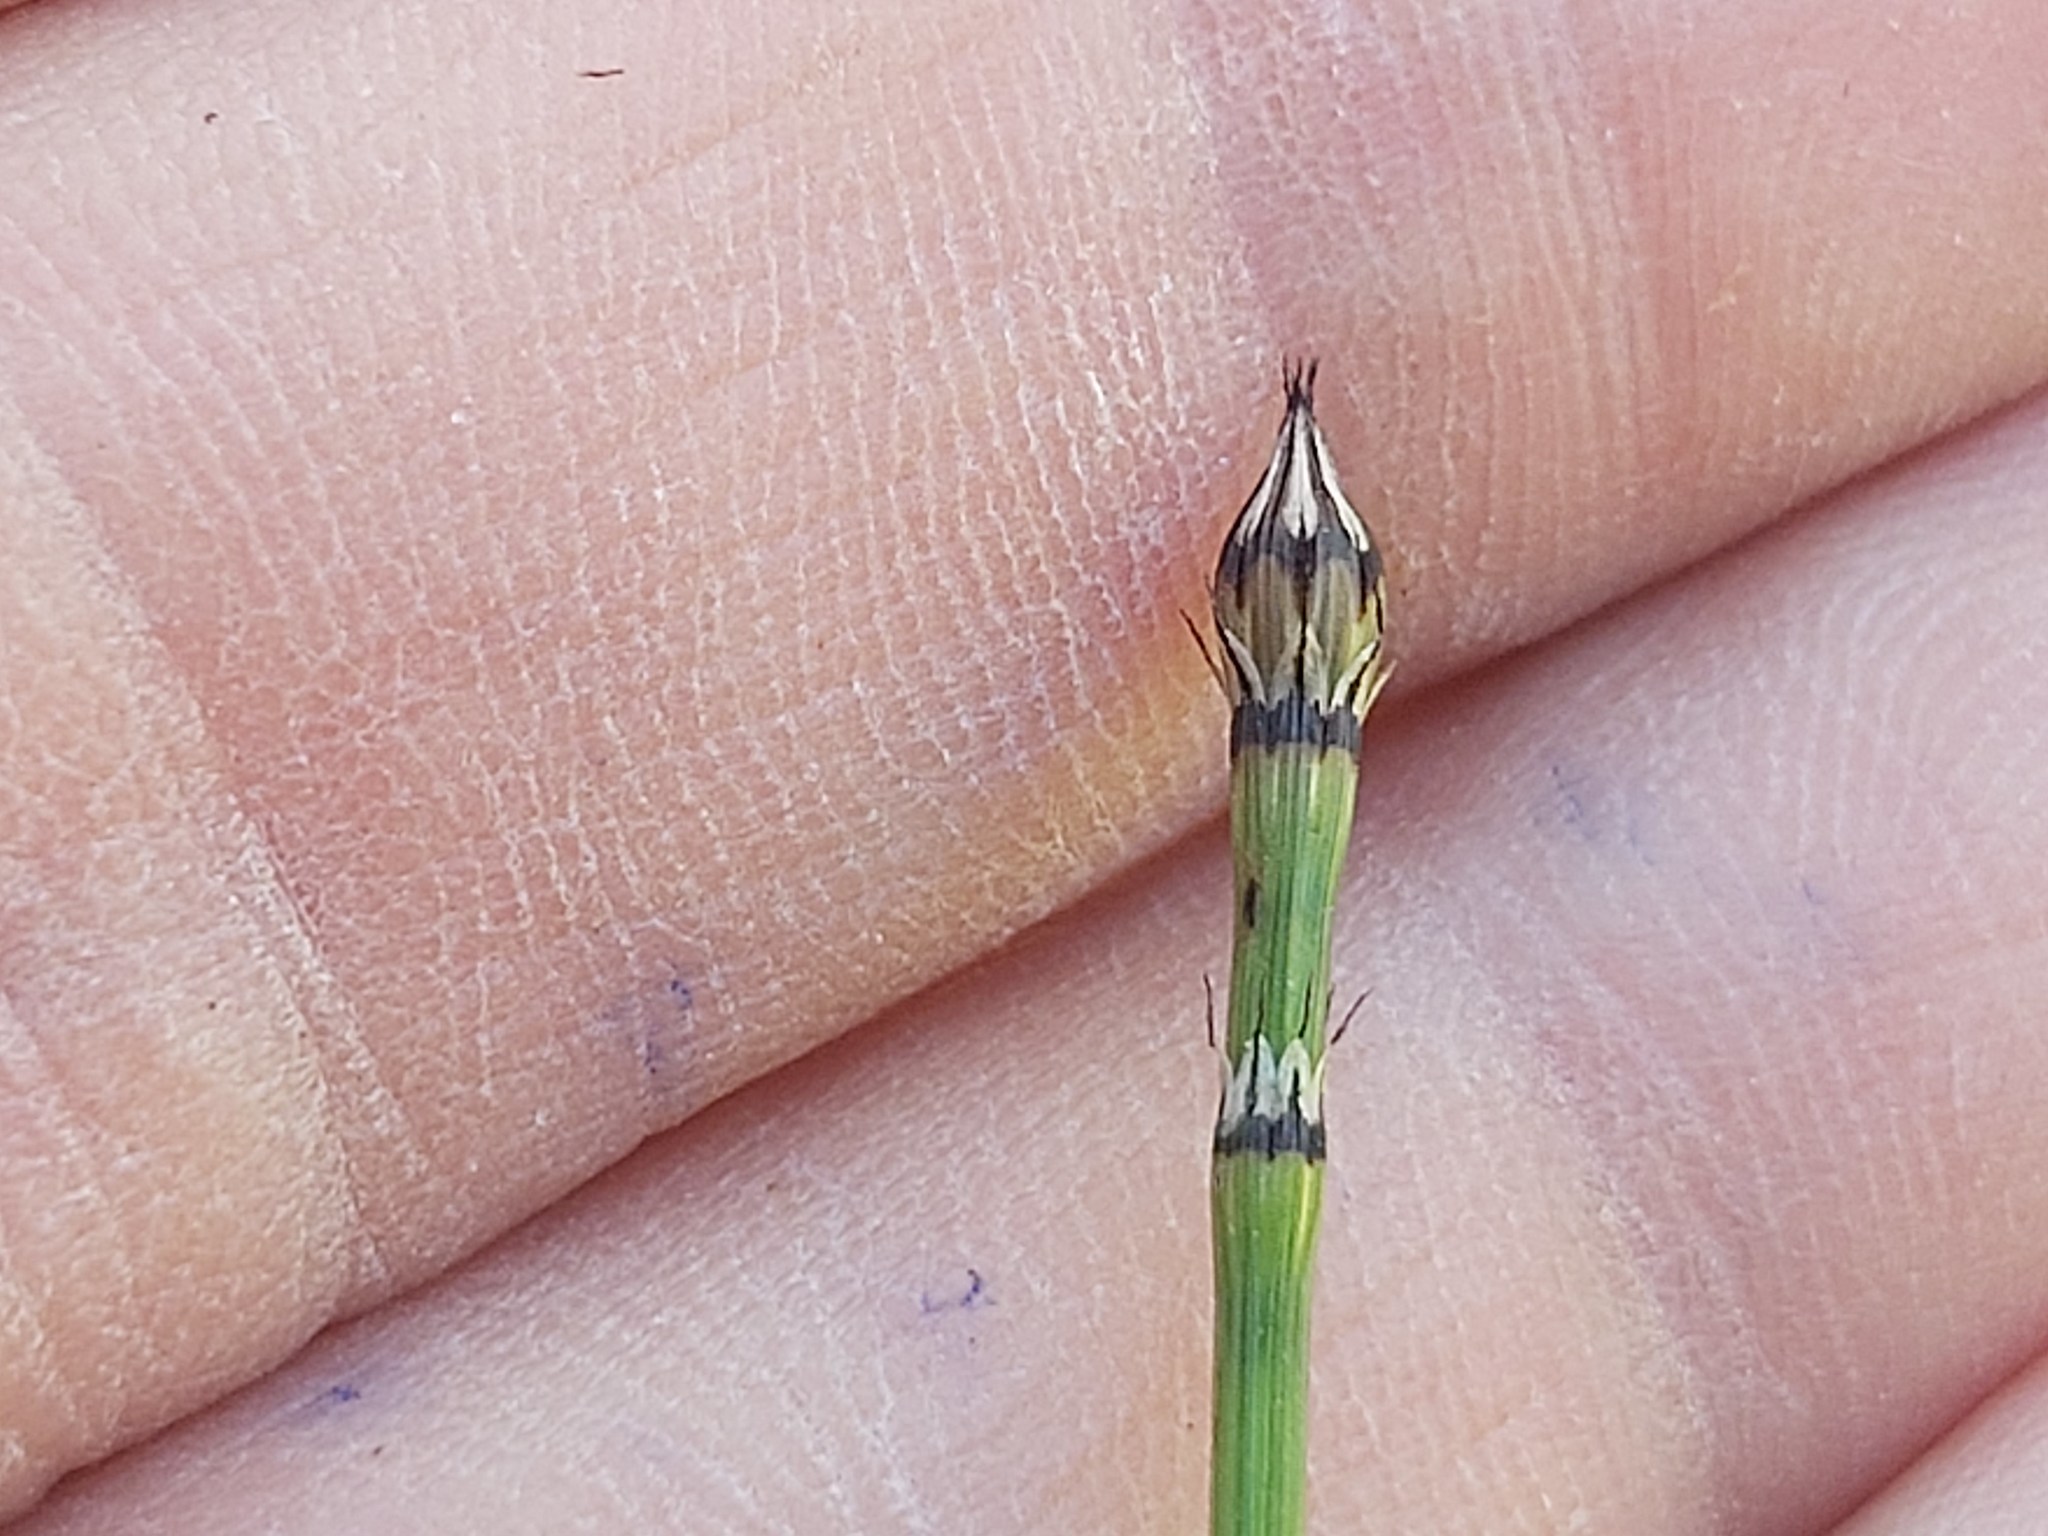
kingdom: Plantae
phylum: Tracheophyta
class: Polypodiopsida
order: Equisetales
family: Equisetaceae
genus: Equisetum
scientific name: Equisetum variegatum
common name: Variegated horsetail
